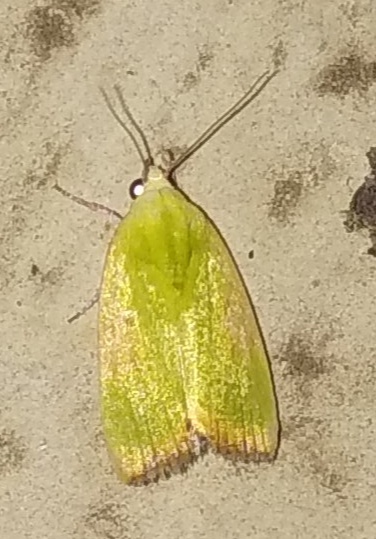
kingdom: Animalia
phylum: Arthropoda
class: Insecta
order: Lepidoptera
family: Nolidae
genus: Earias
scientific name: Earias flavida
